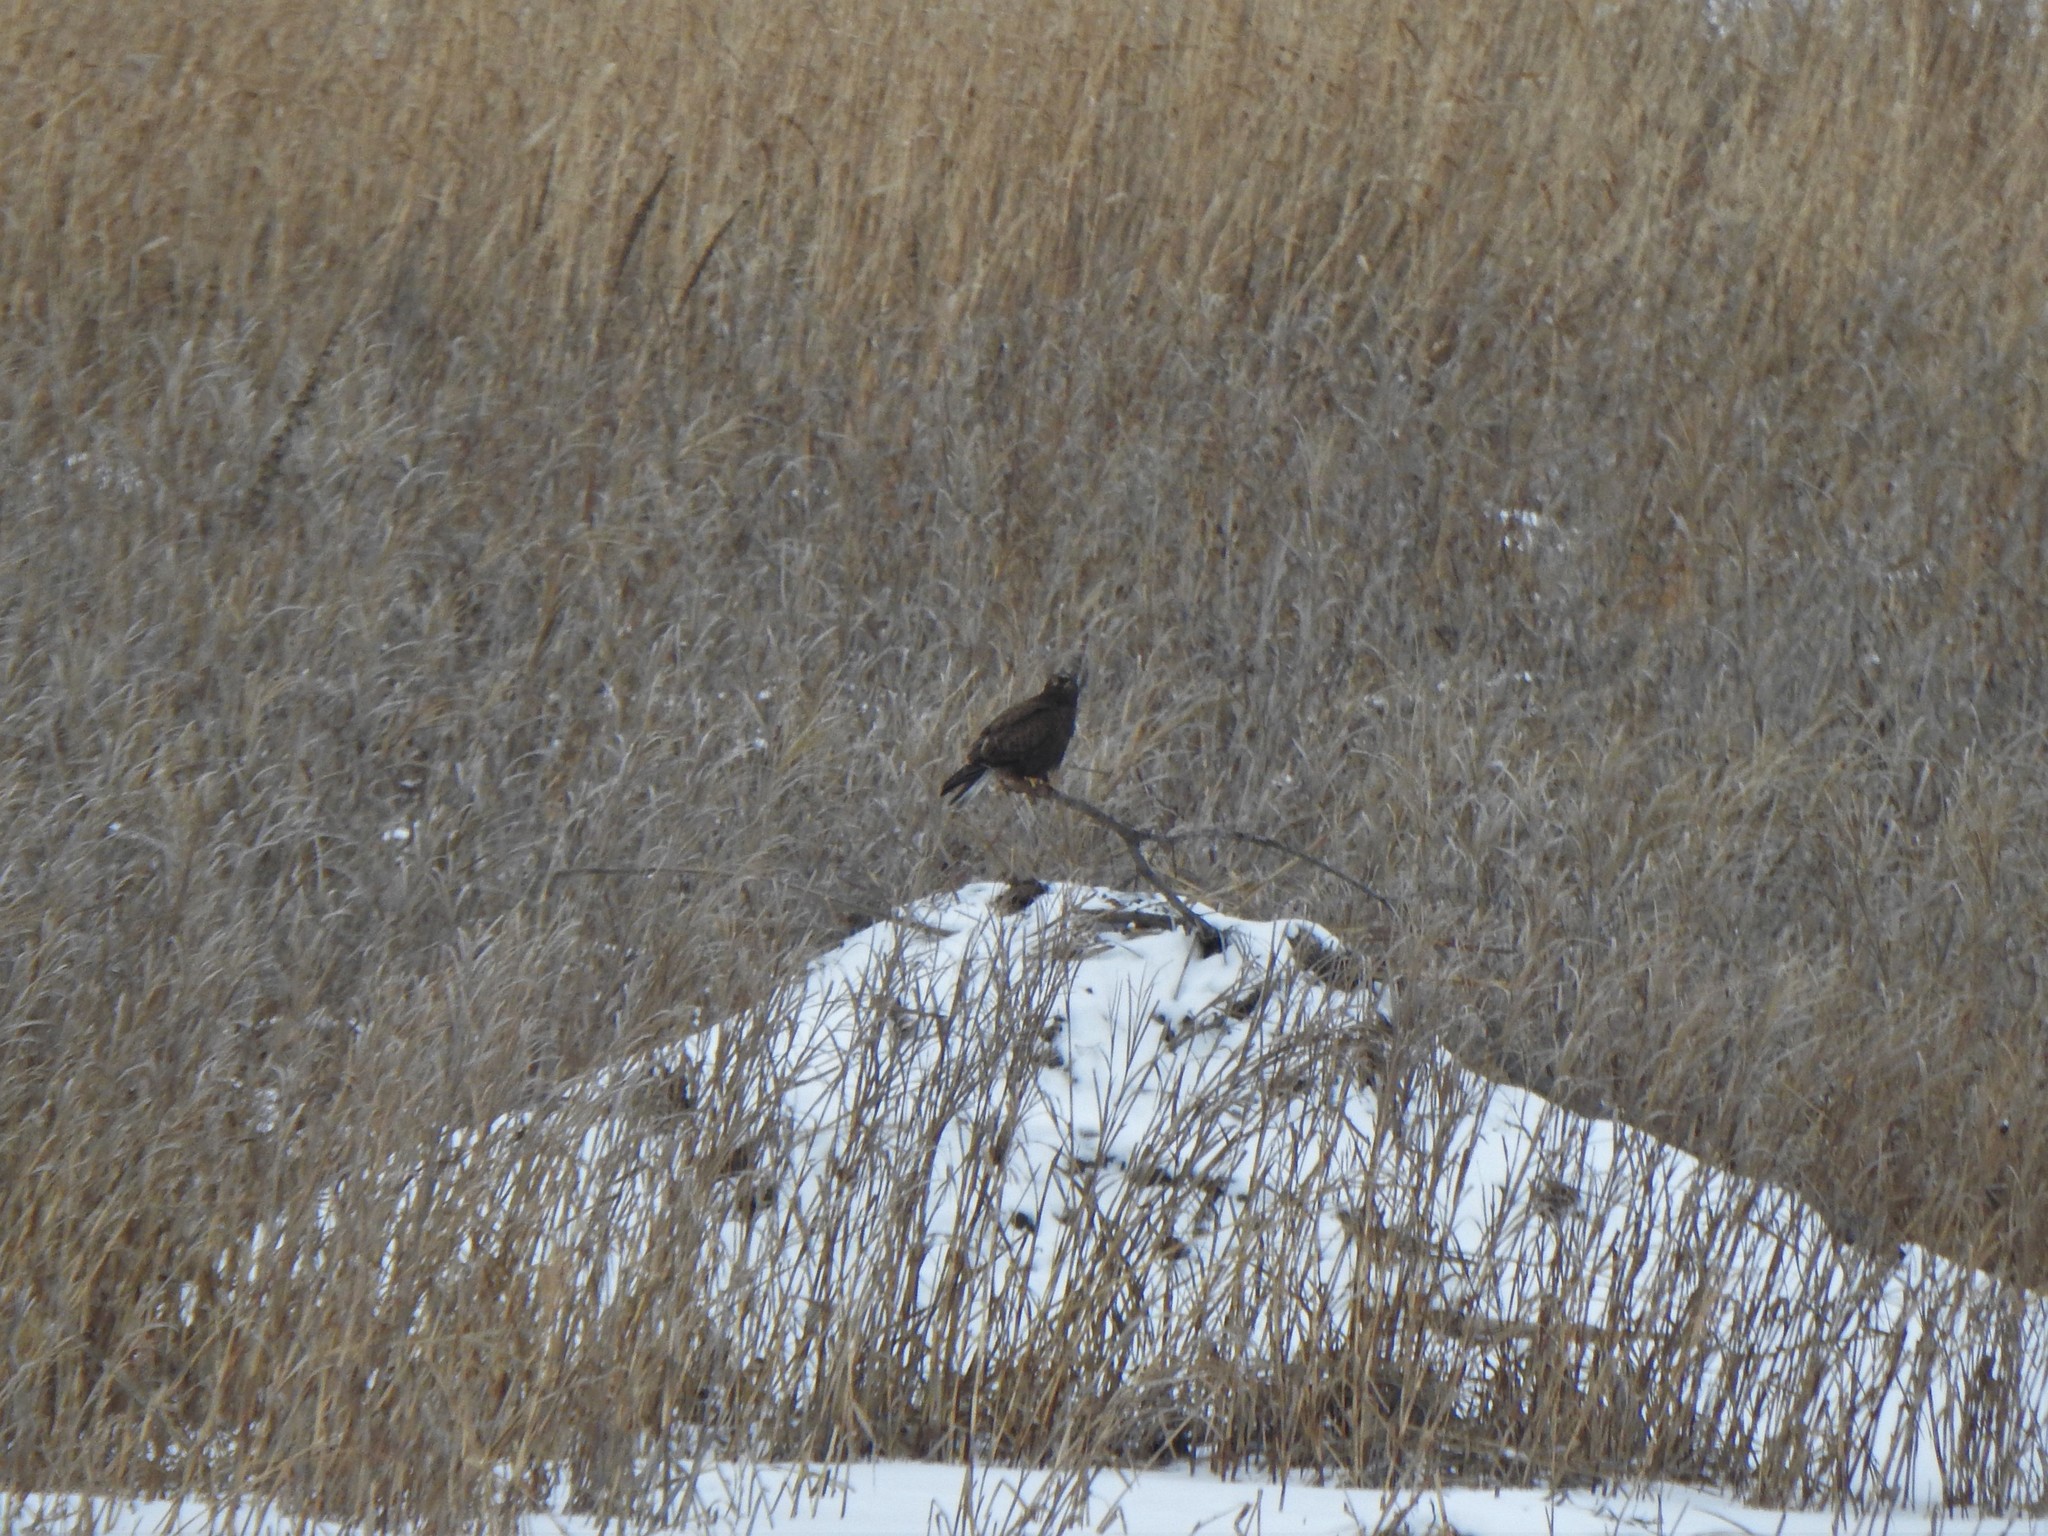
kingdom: Animalia
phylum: Chordata
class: Aves
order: Accipitriformes
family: Accipitridae
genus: Buteo
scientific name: Buteo lagopus
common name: Rough-legged buzzard
